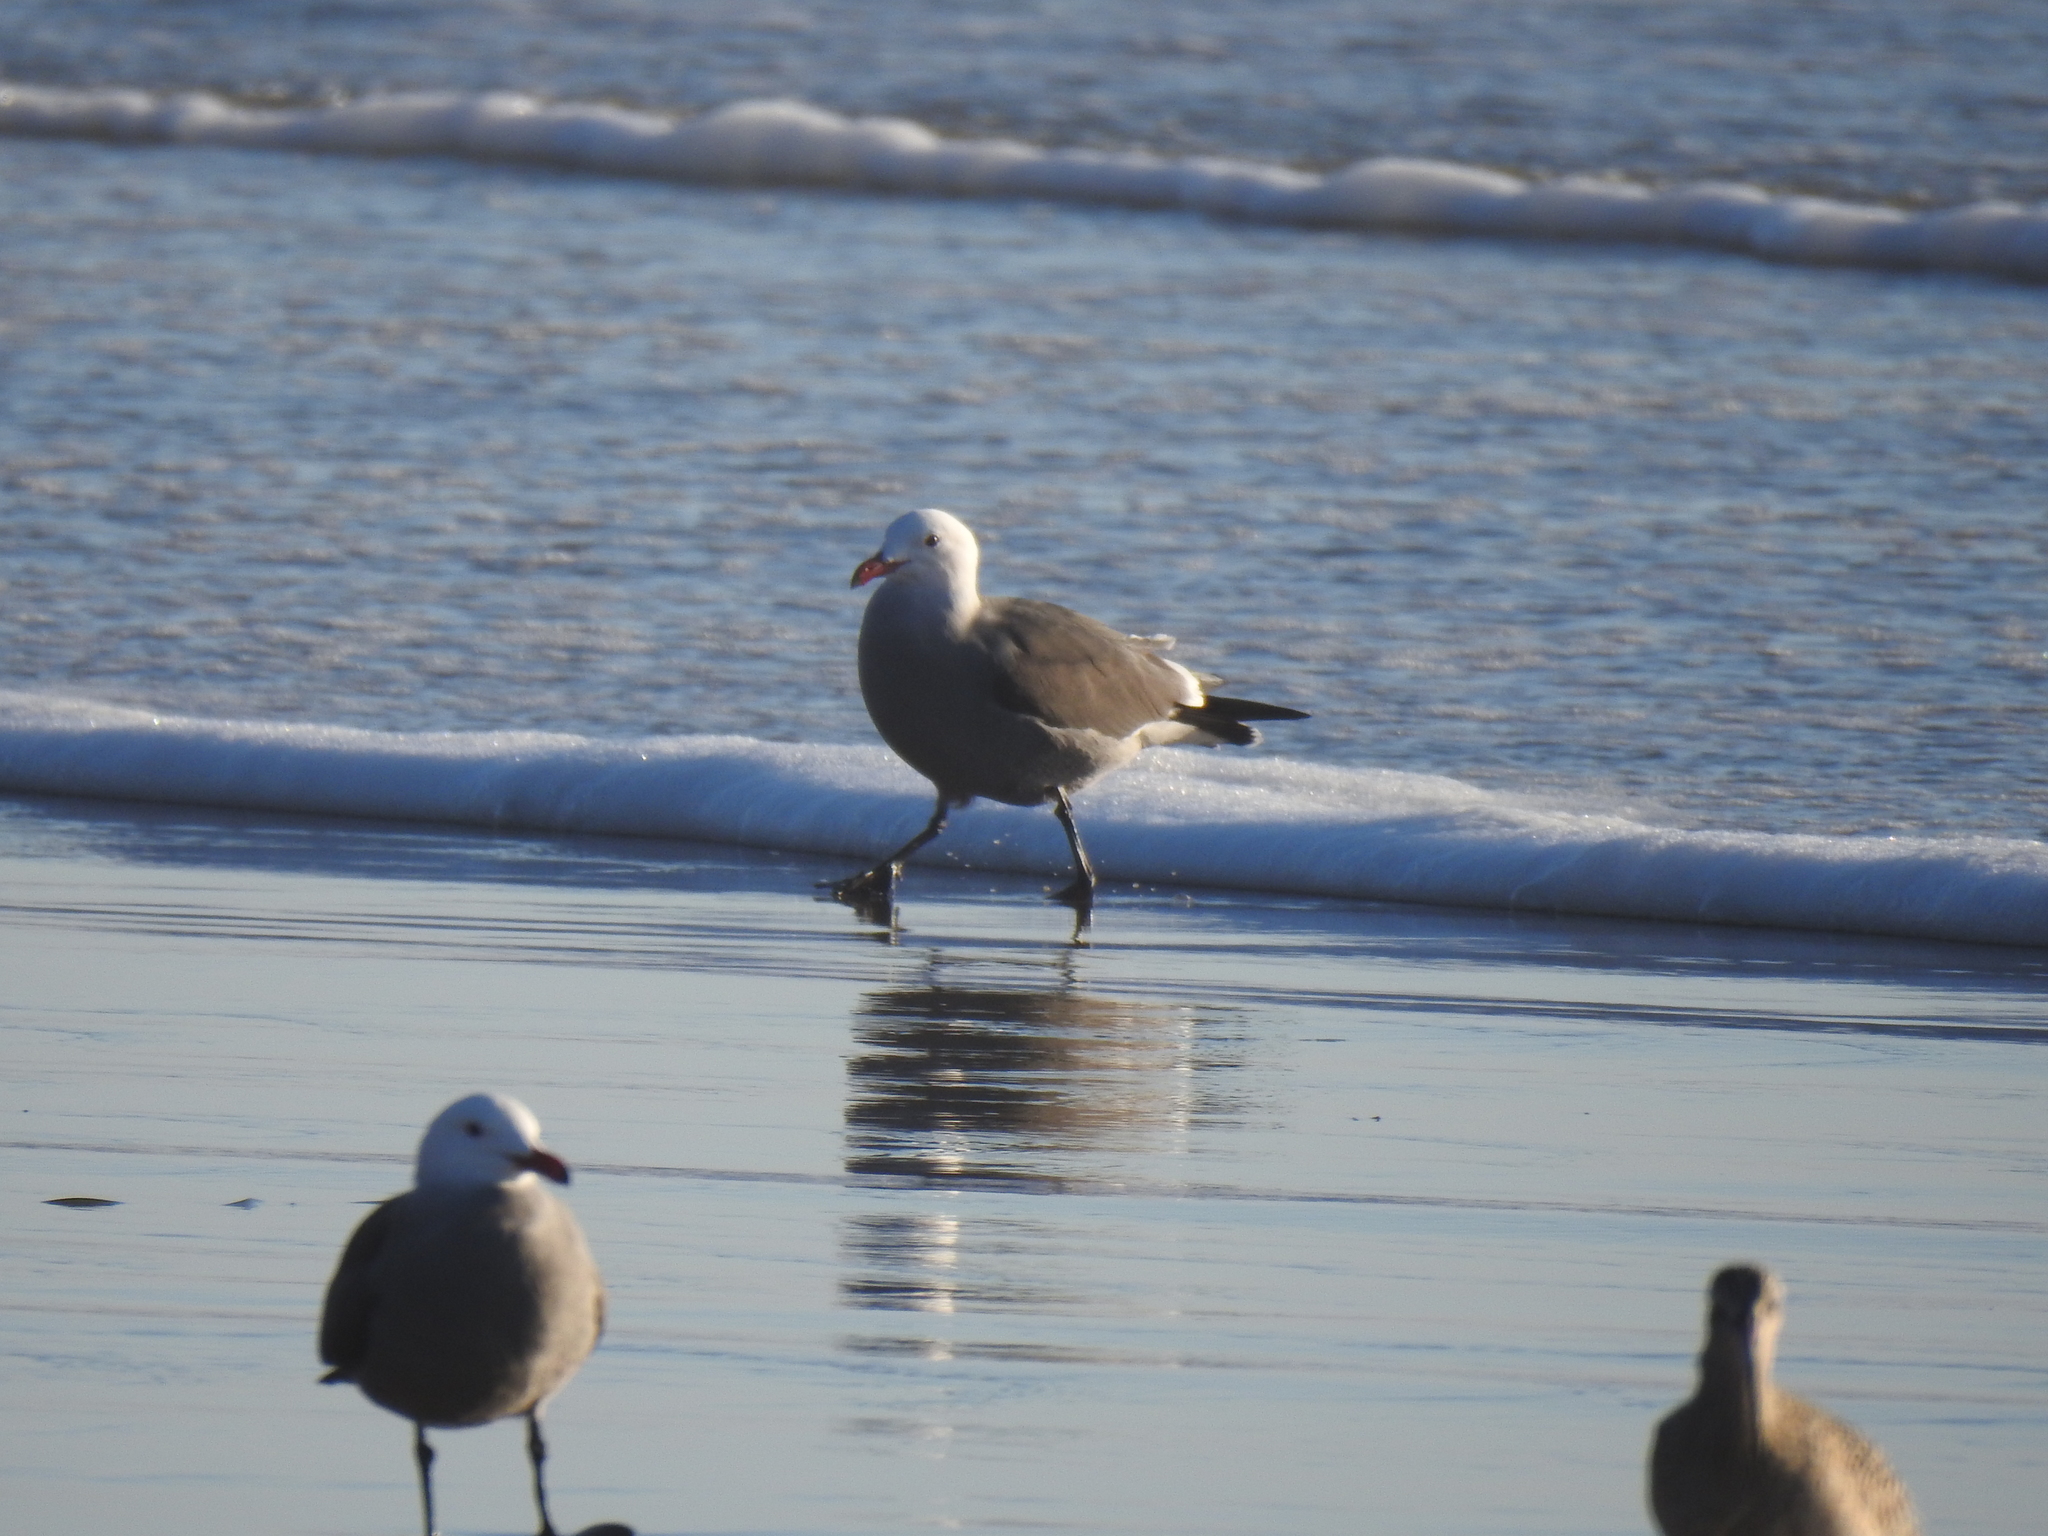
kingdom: Animalia
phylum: Chordata
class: Aves
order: Charadriiformes
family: Laridae
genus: Larus
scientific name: Larus heermanni
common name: Heermann's gull
